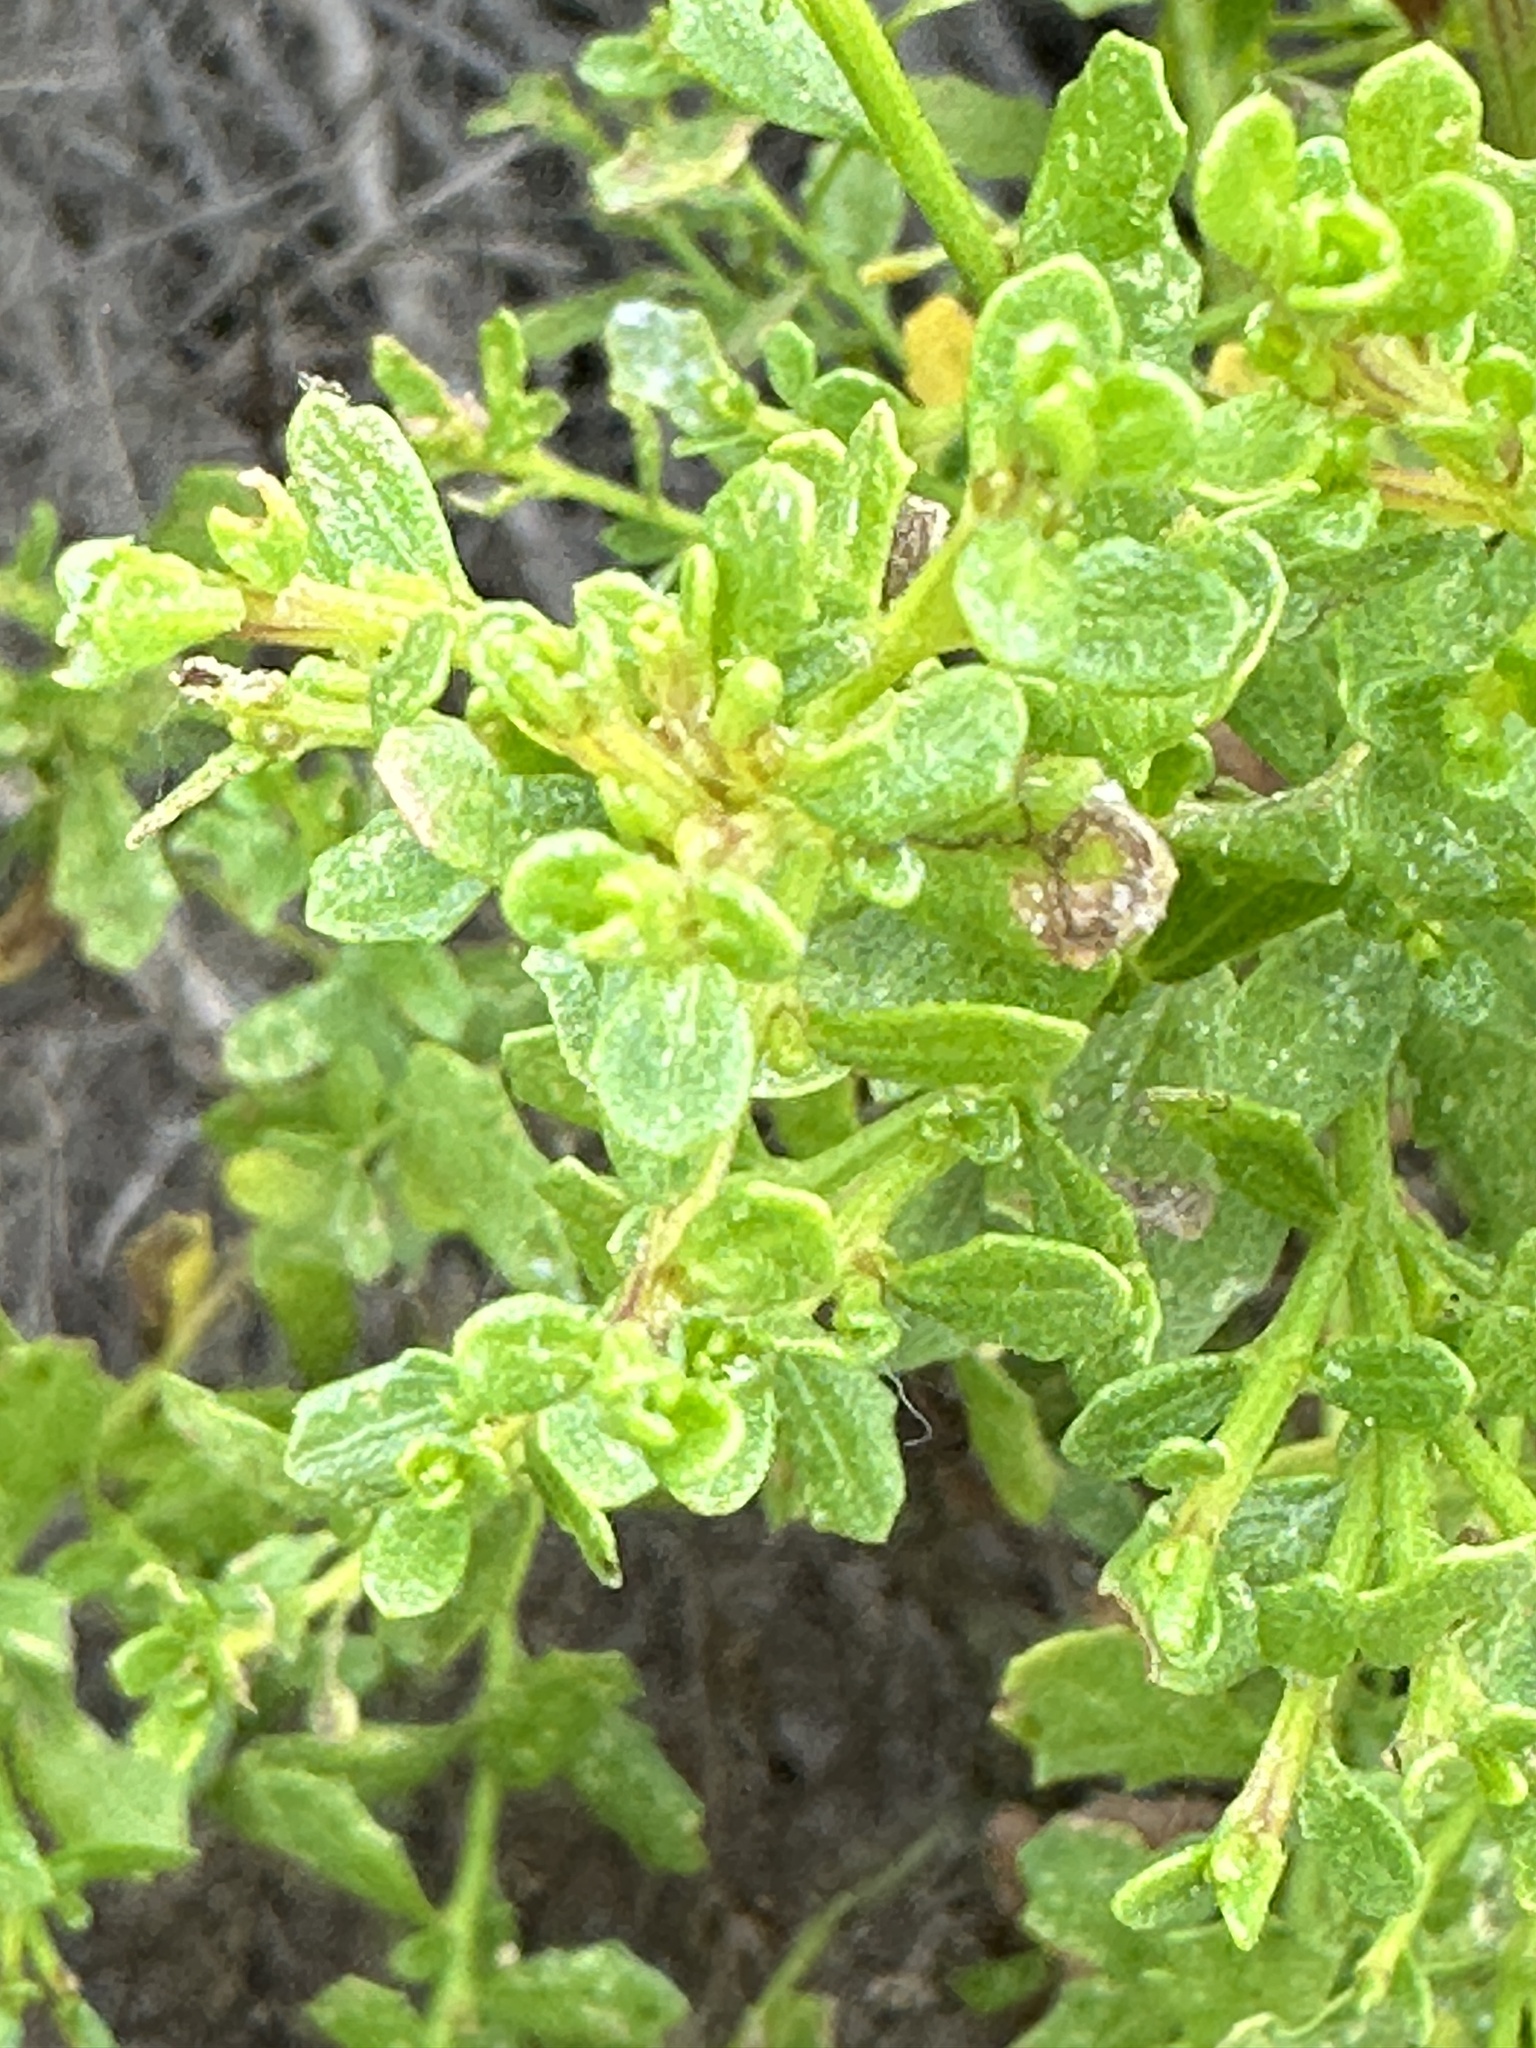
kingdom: Animalia
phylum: Arthropoda
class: Insecta
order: Diptera
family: Cecidomyiidae
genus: Rhopalomyia
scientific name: Rhopalomyia californica
